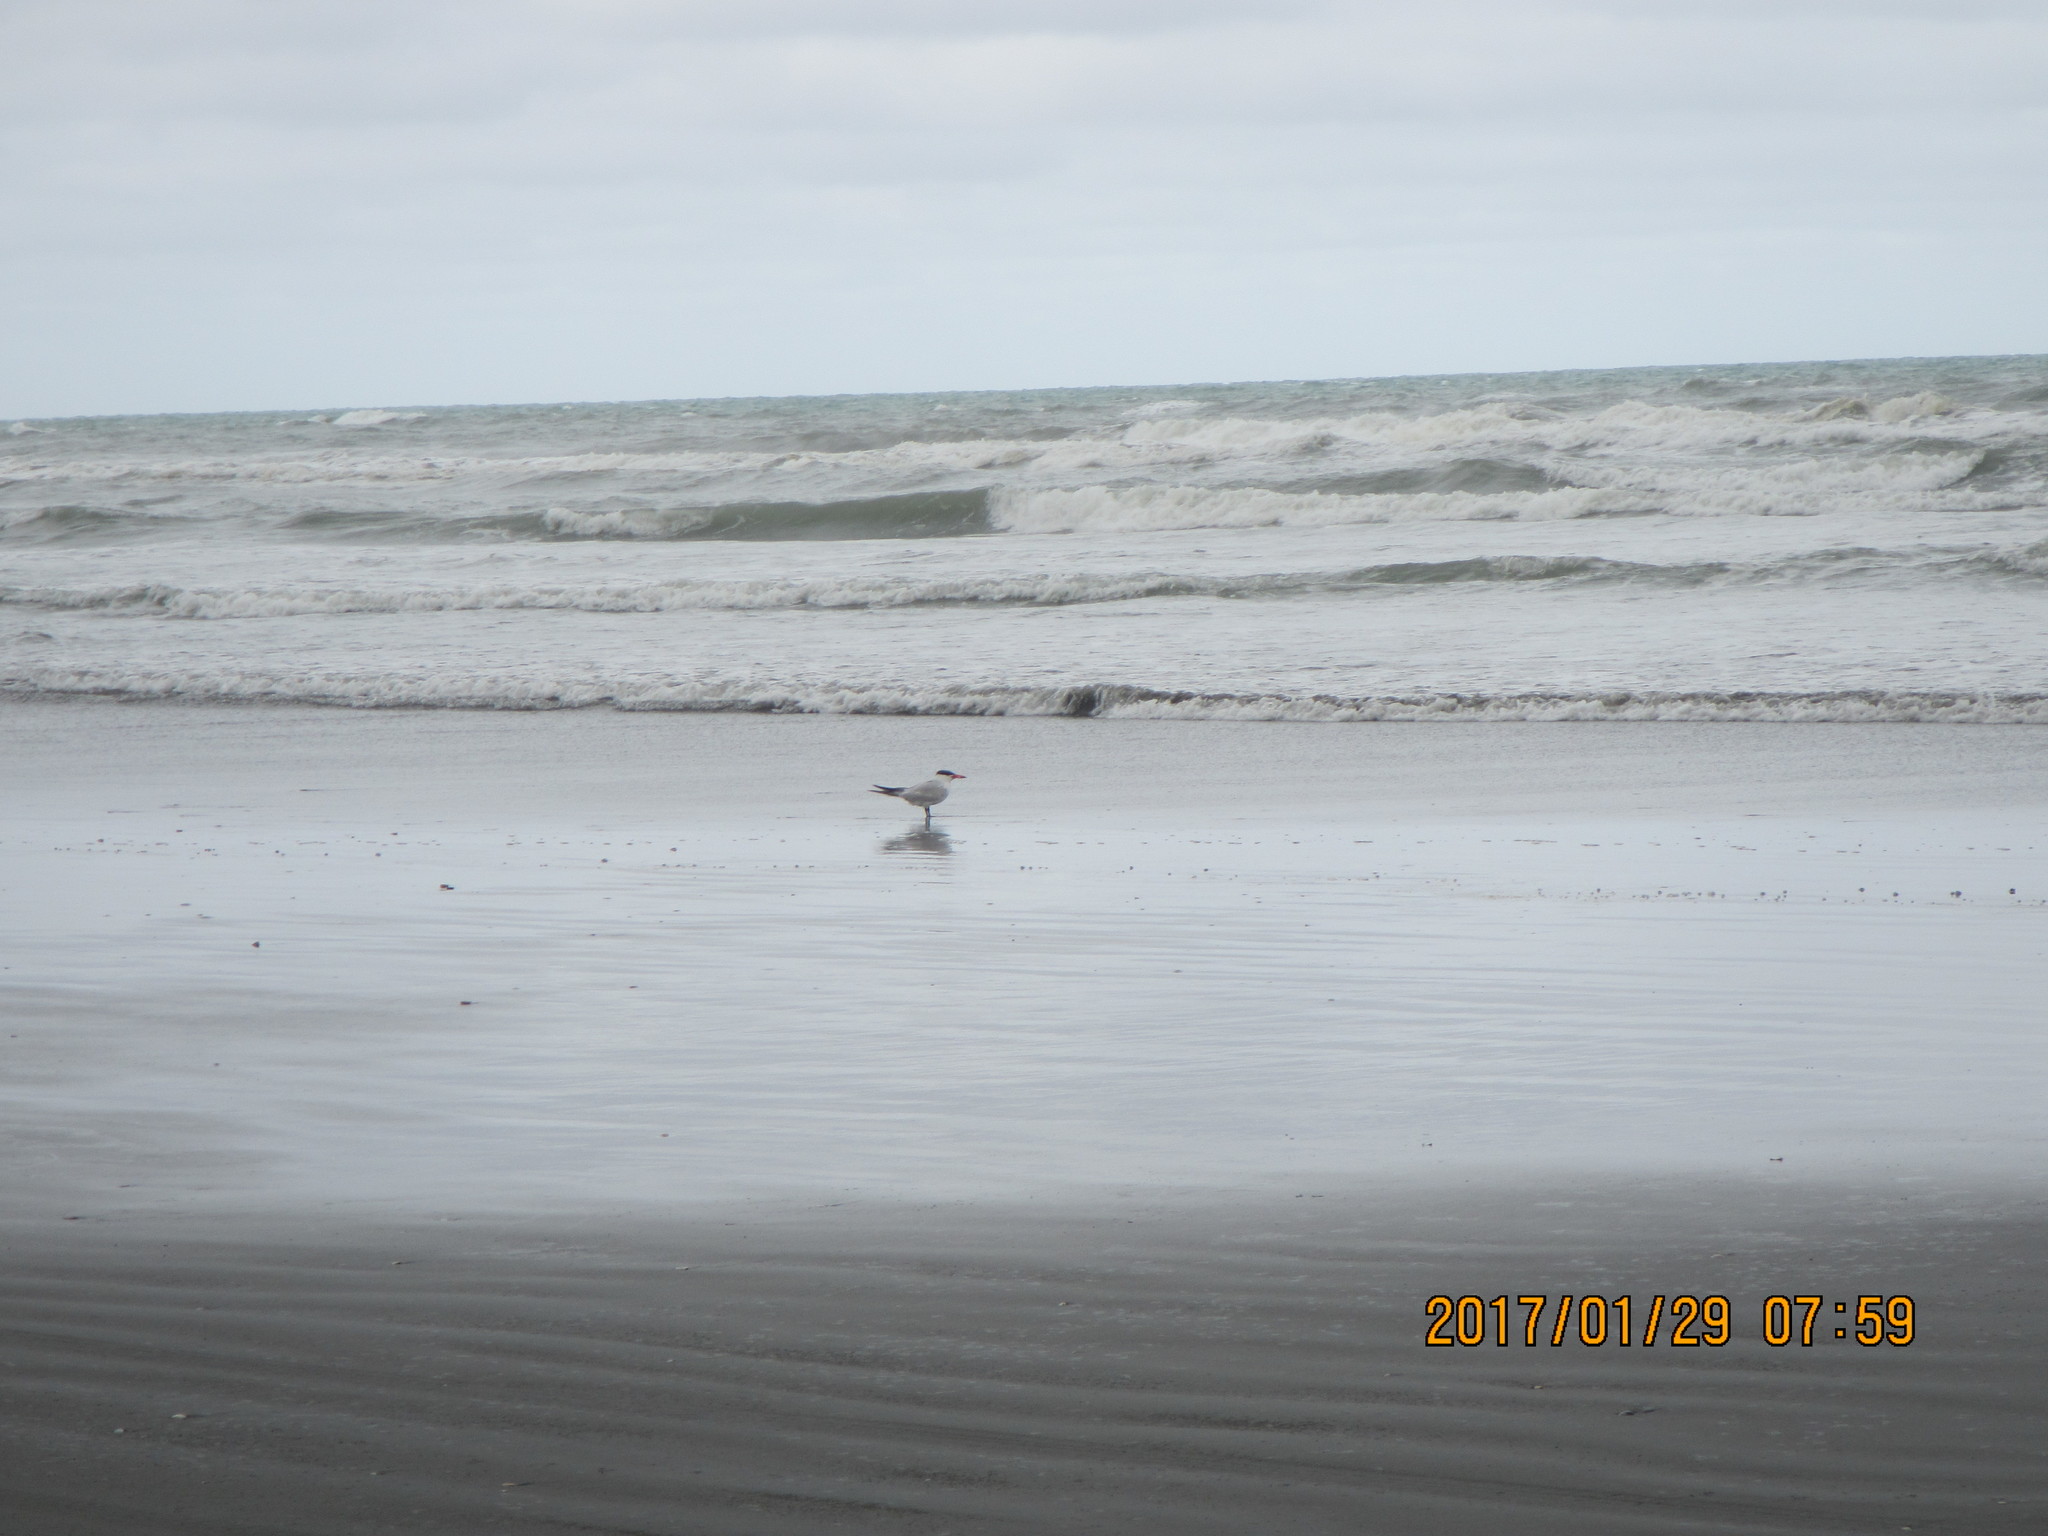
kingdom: Animalia
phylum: Chordata
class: Aves
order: Charadriiformes
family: Laridae
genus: Hydroprogne
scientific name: Hydroprogne caspia
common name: Caspian tern
